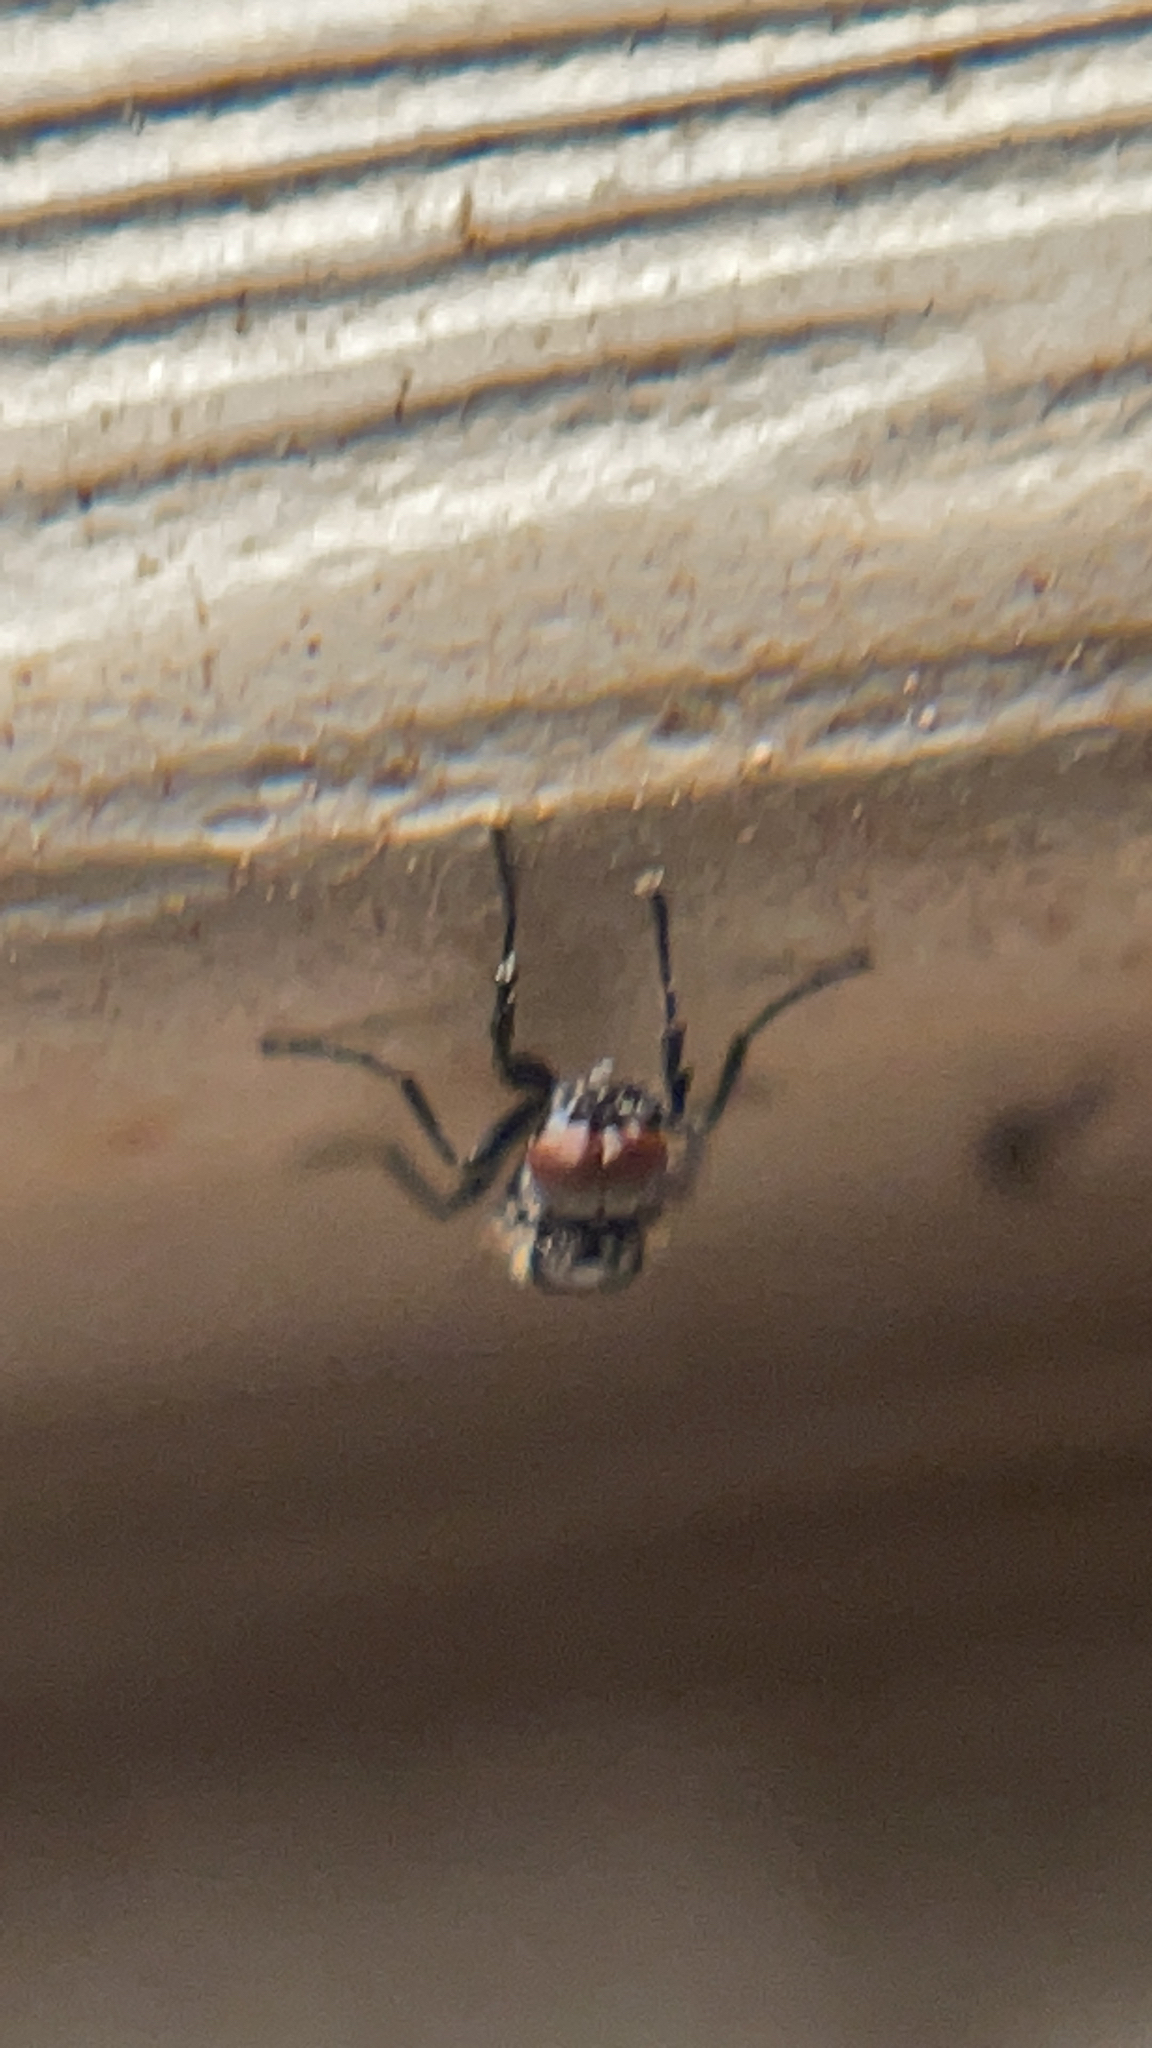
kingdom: Animalia
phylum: Arthropoda
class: Insecta
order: Diptera
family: Bibionidae
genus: Dilophus
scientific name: Dilophus
